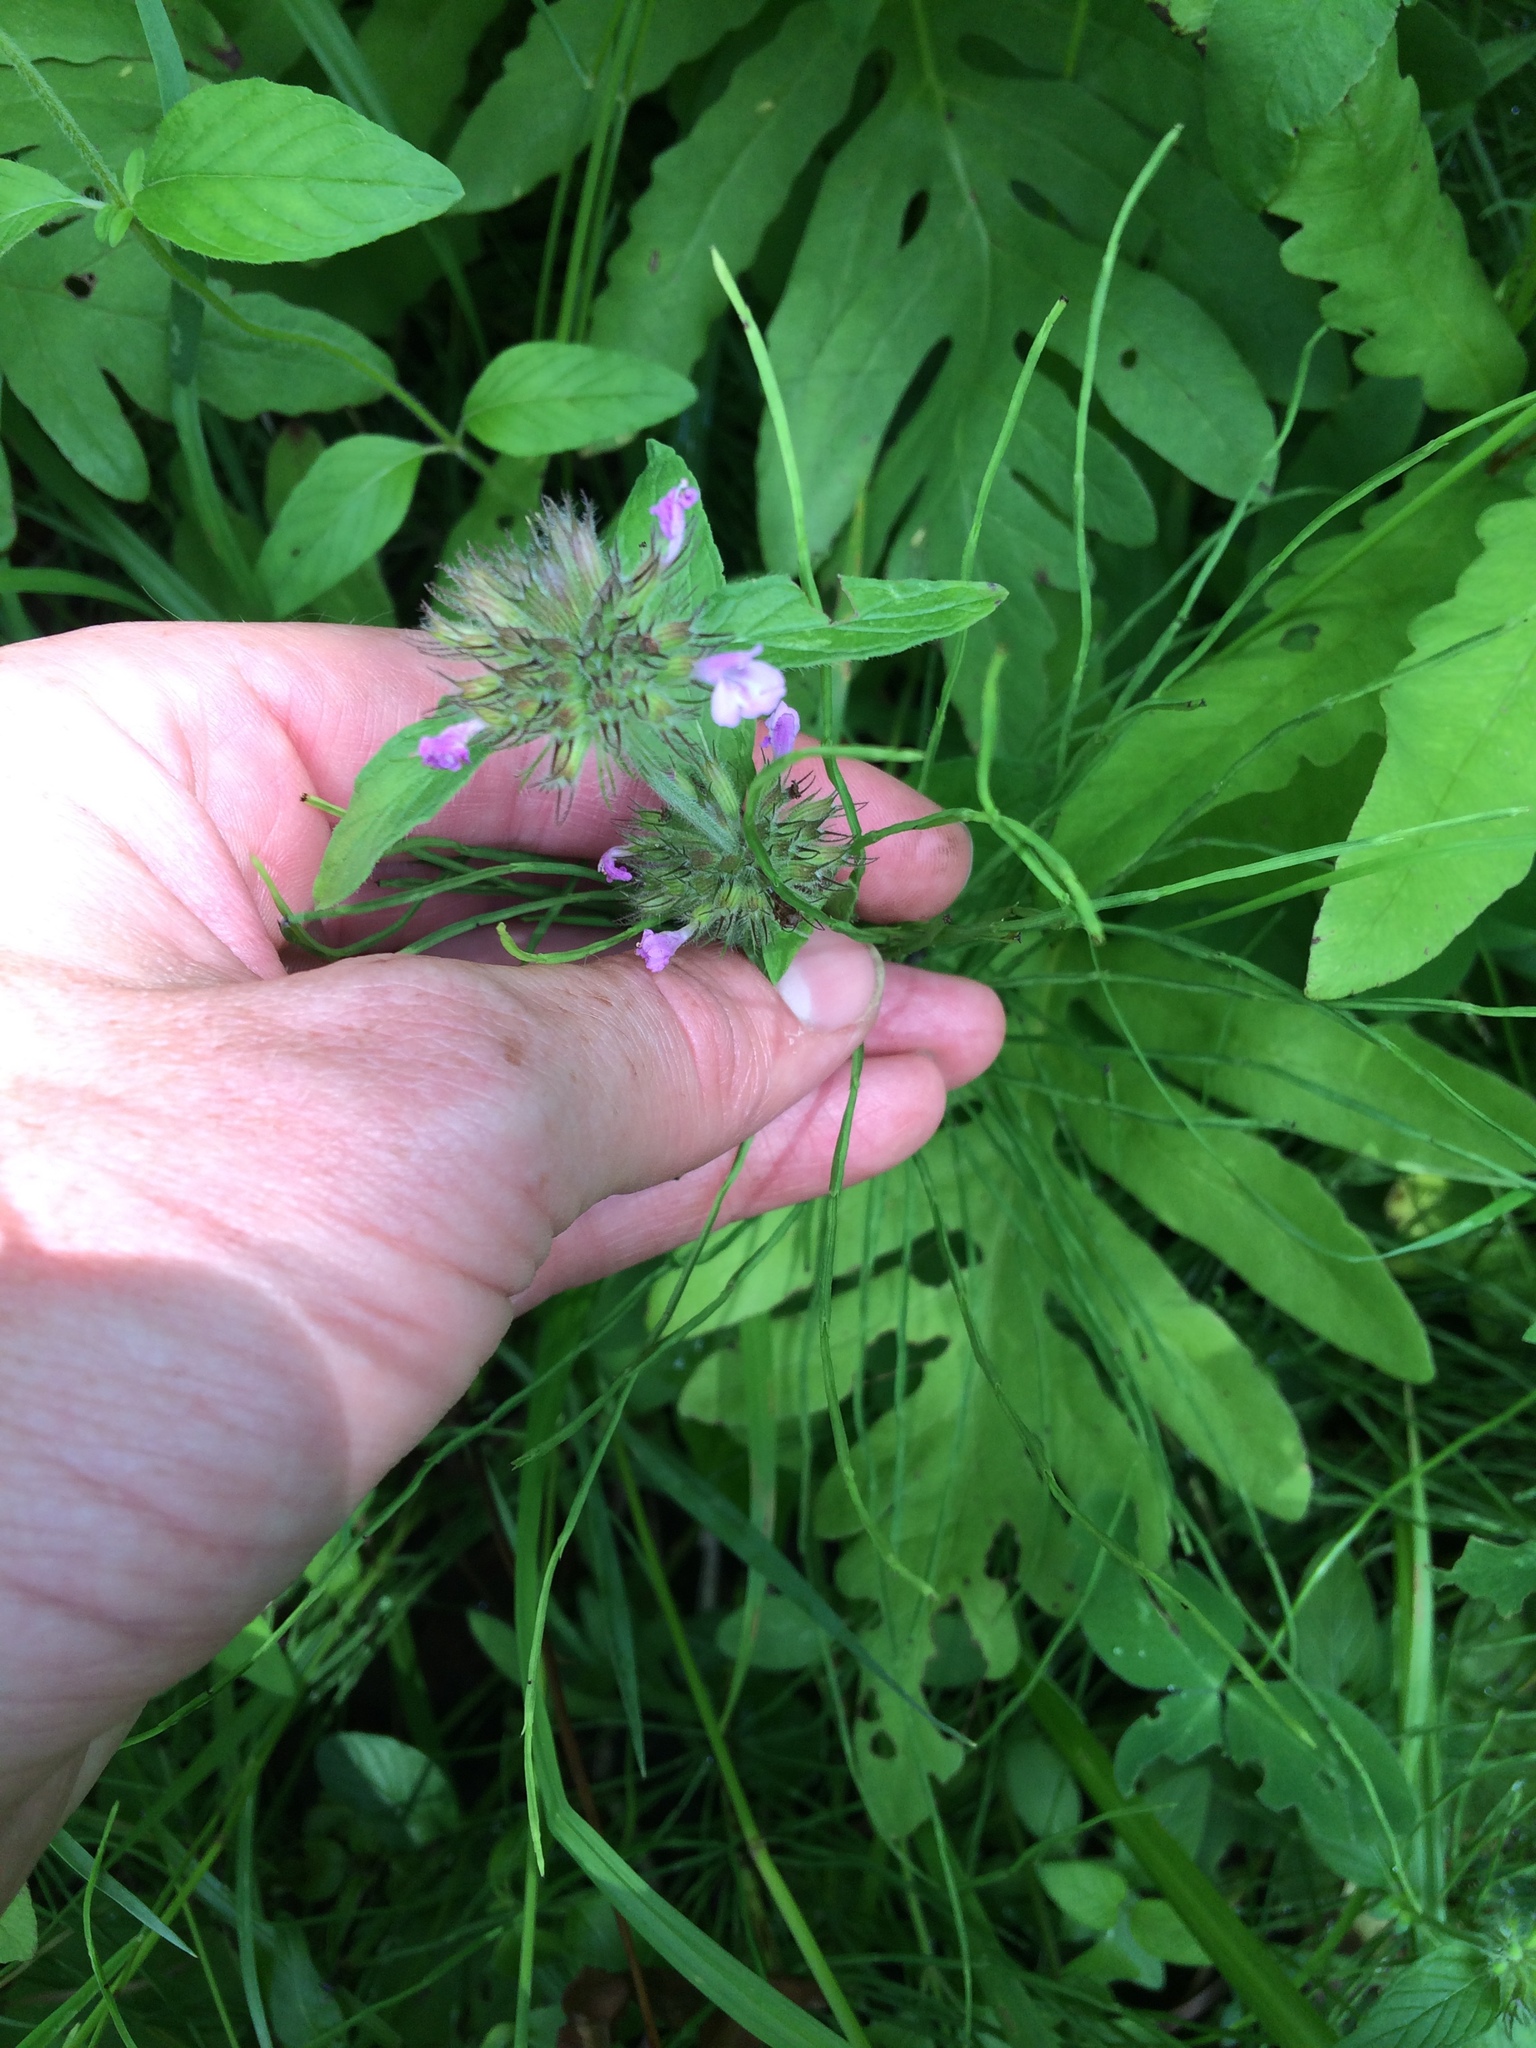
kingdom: Plantae
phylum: Tracheophyta
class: Magnoliopsida
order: Lamiales
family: Lamiaceae
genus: Clinopodium
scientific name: Clinopodium vulgare
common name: Wild basil
